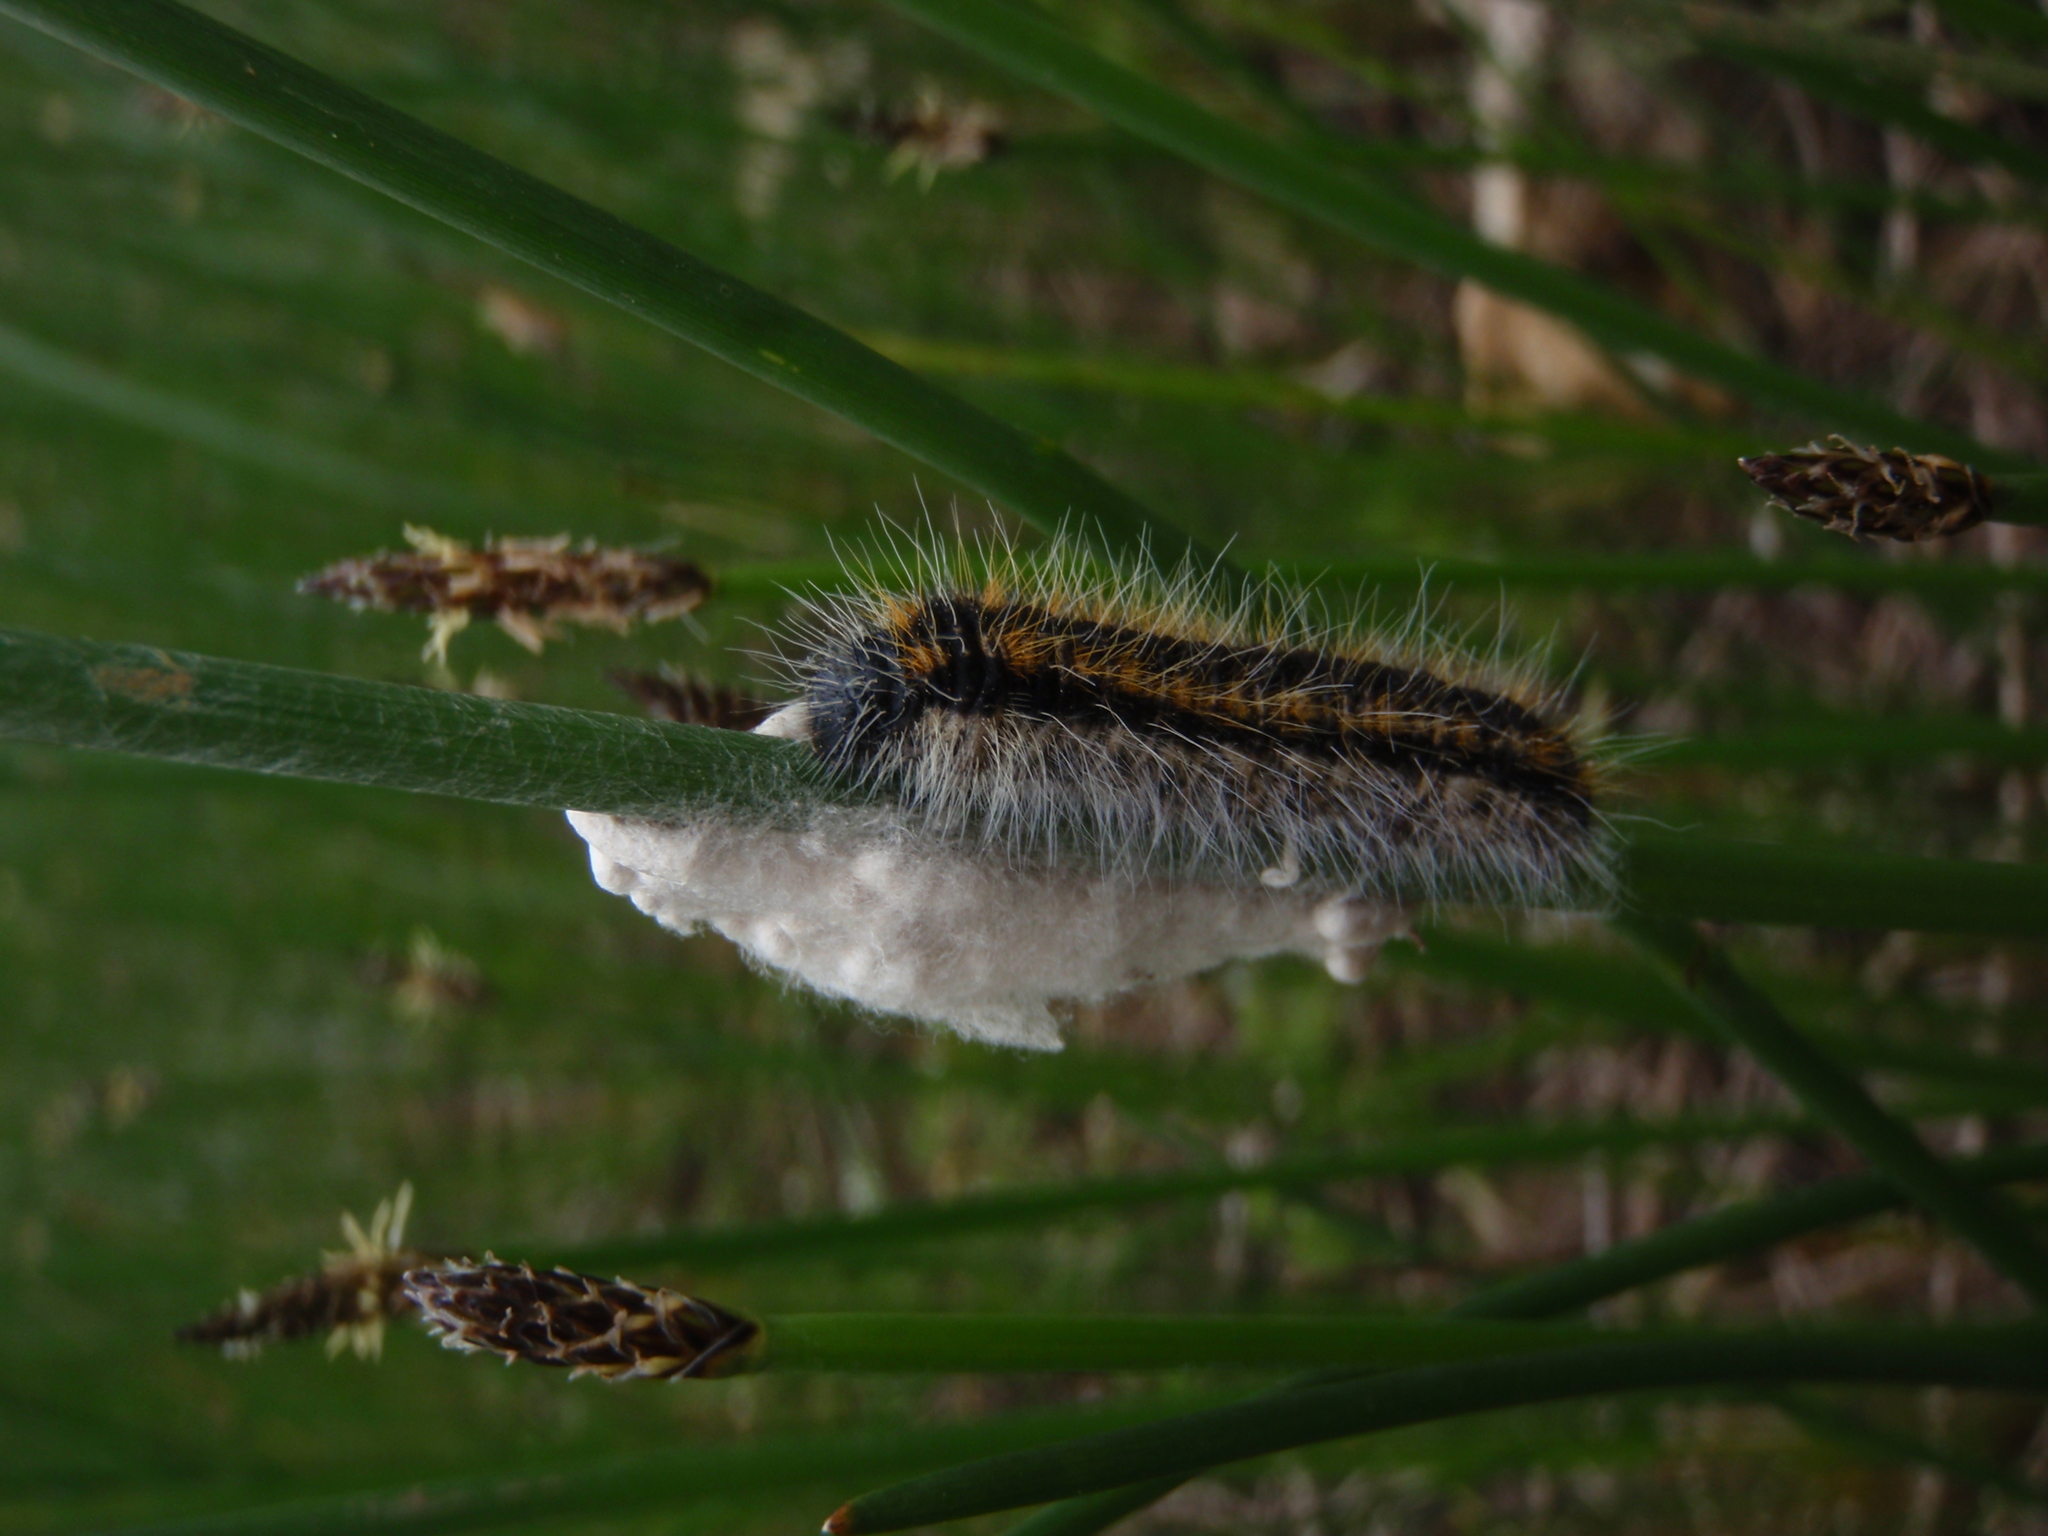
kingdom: Animalia
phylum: Arthropoda
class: Insecta
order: Lepidoptera
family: Pieridae
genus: Aporia
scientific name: Aporia crataegi
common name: Black-veined white
